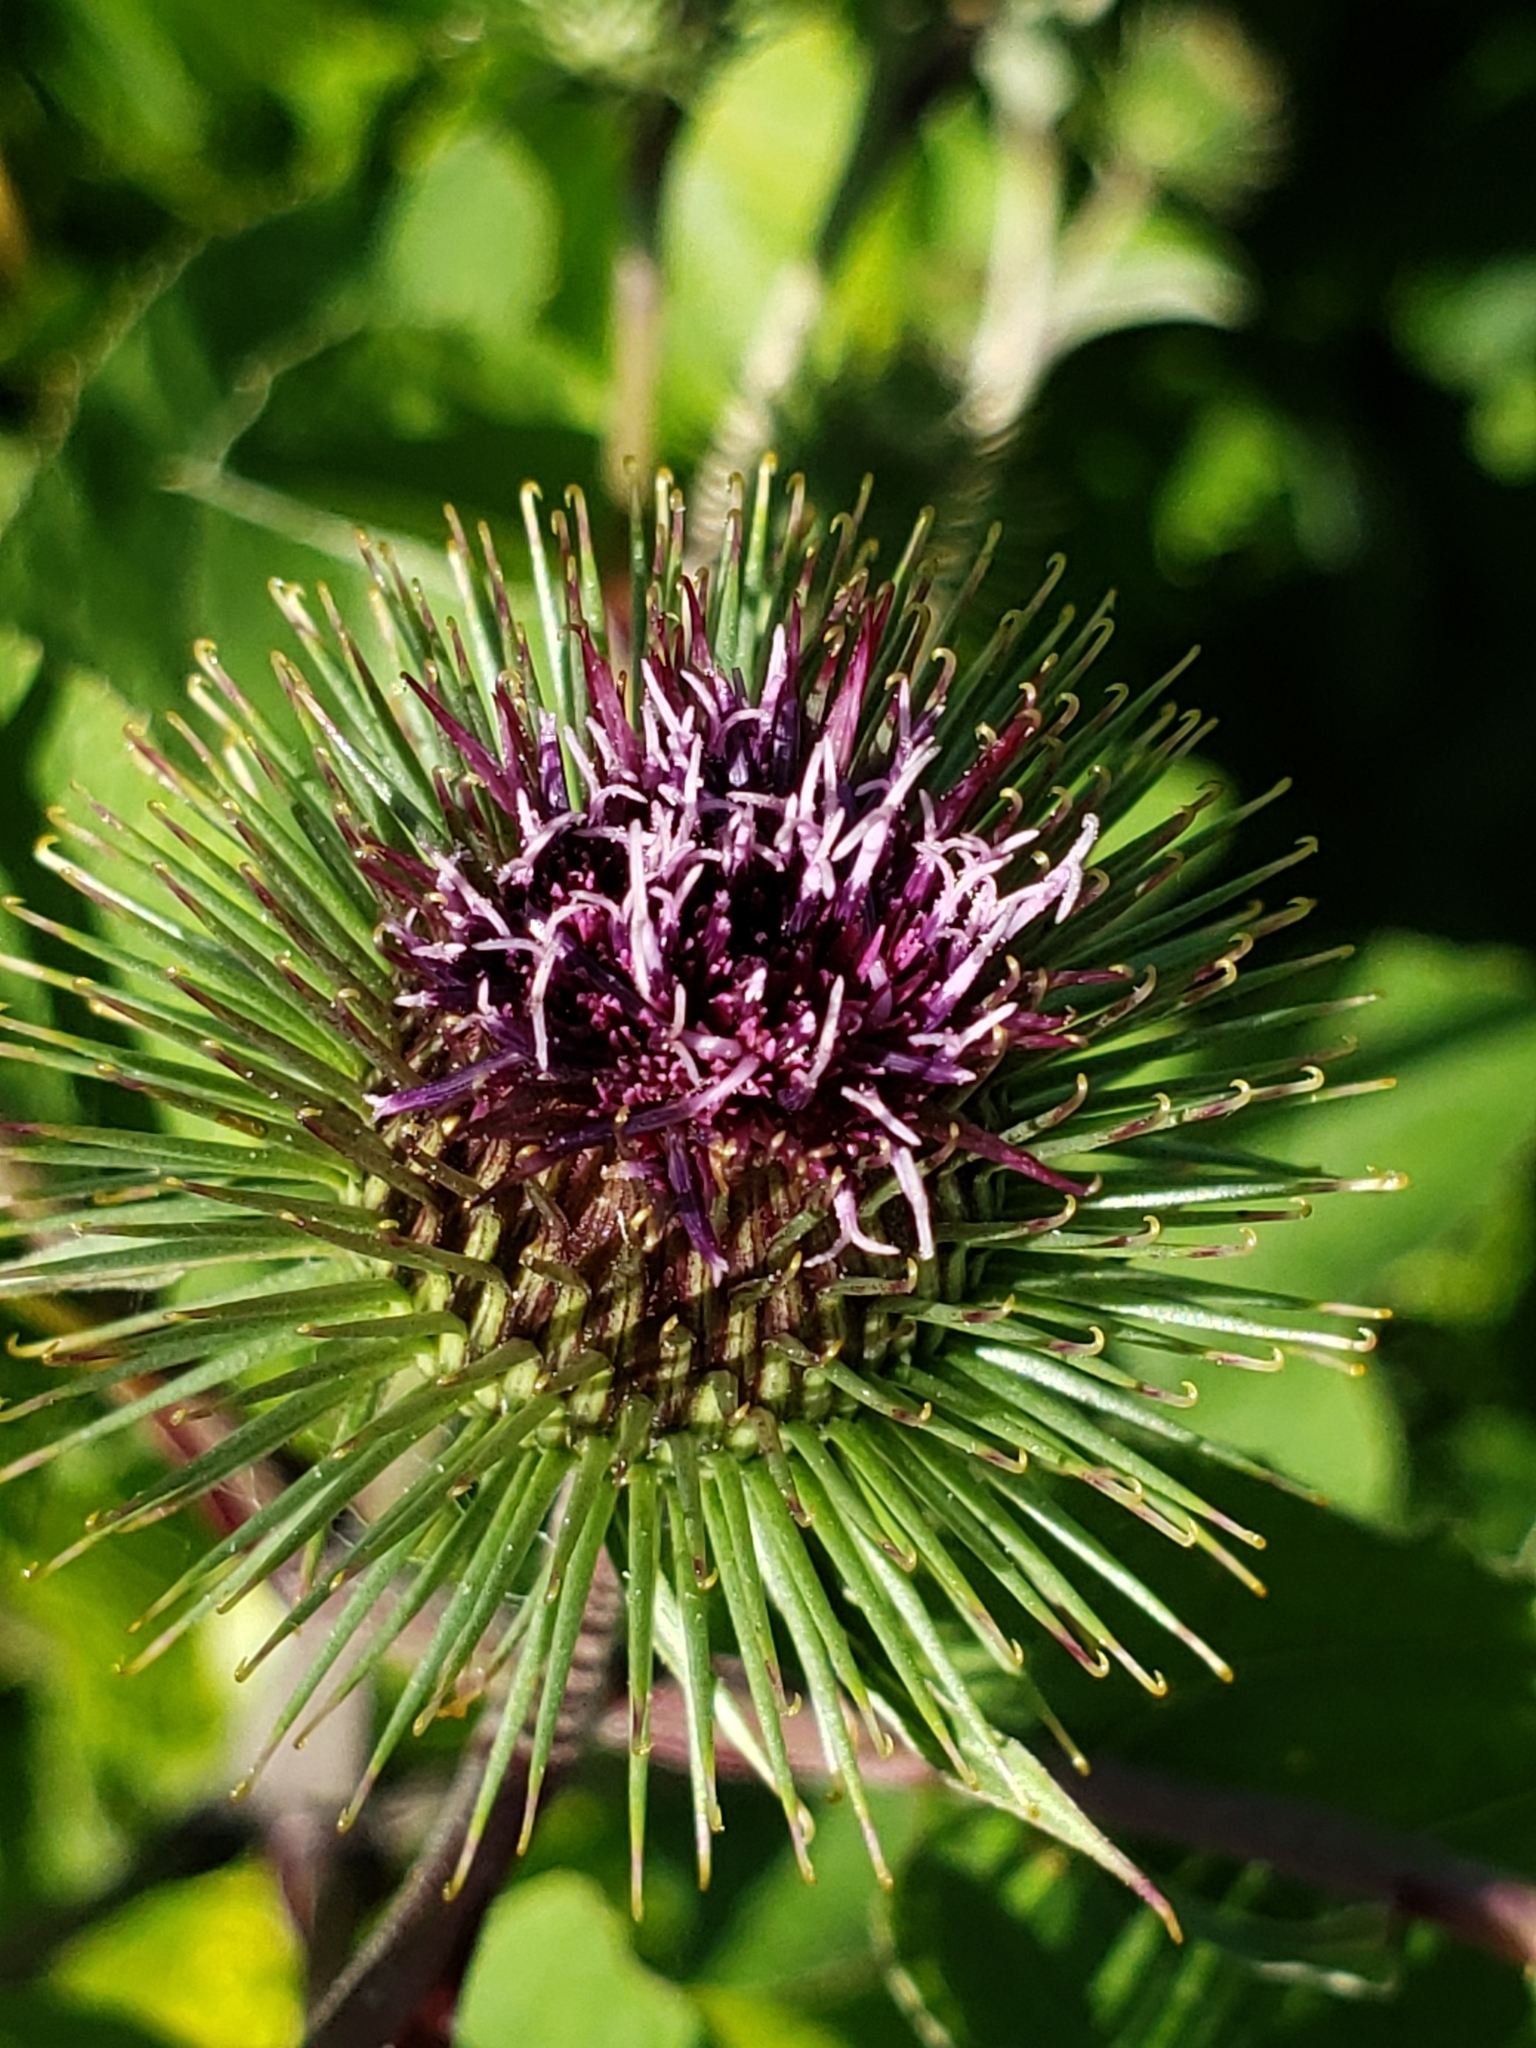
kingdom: Plantae
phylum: Tracheophyta
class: Magnoliopsida
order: Asterales
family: Asteraceae
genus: Arctium
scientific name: Arctium lappa
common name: Greater burdock
